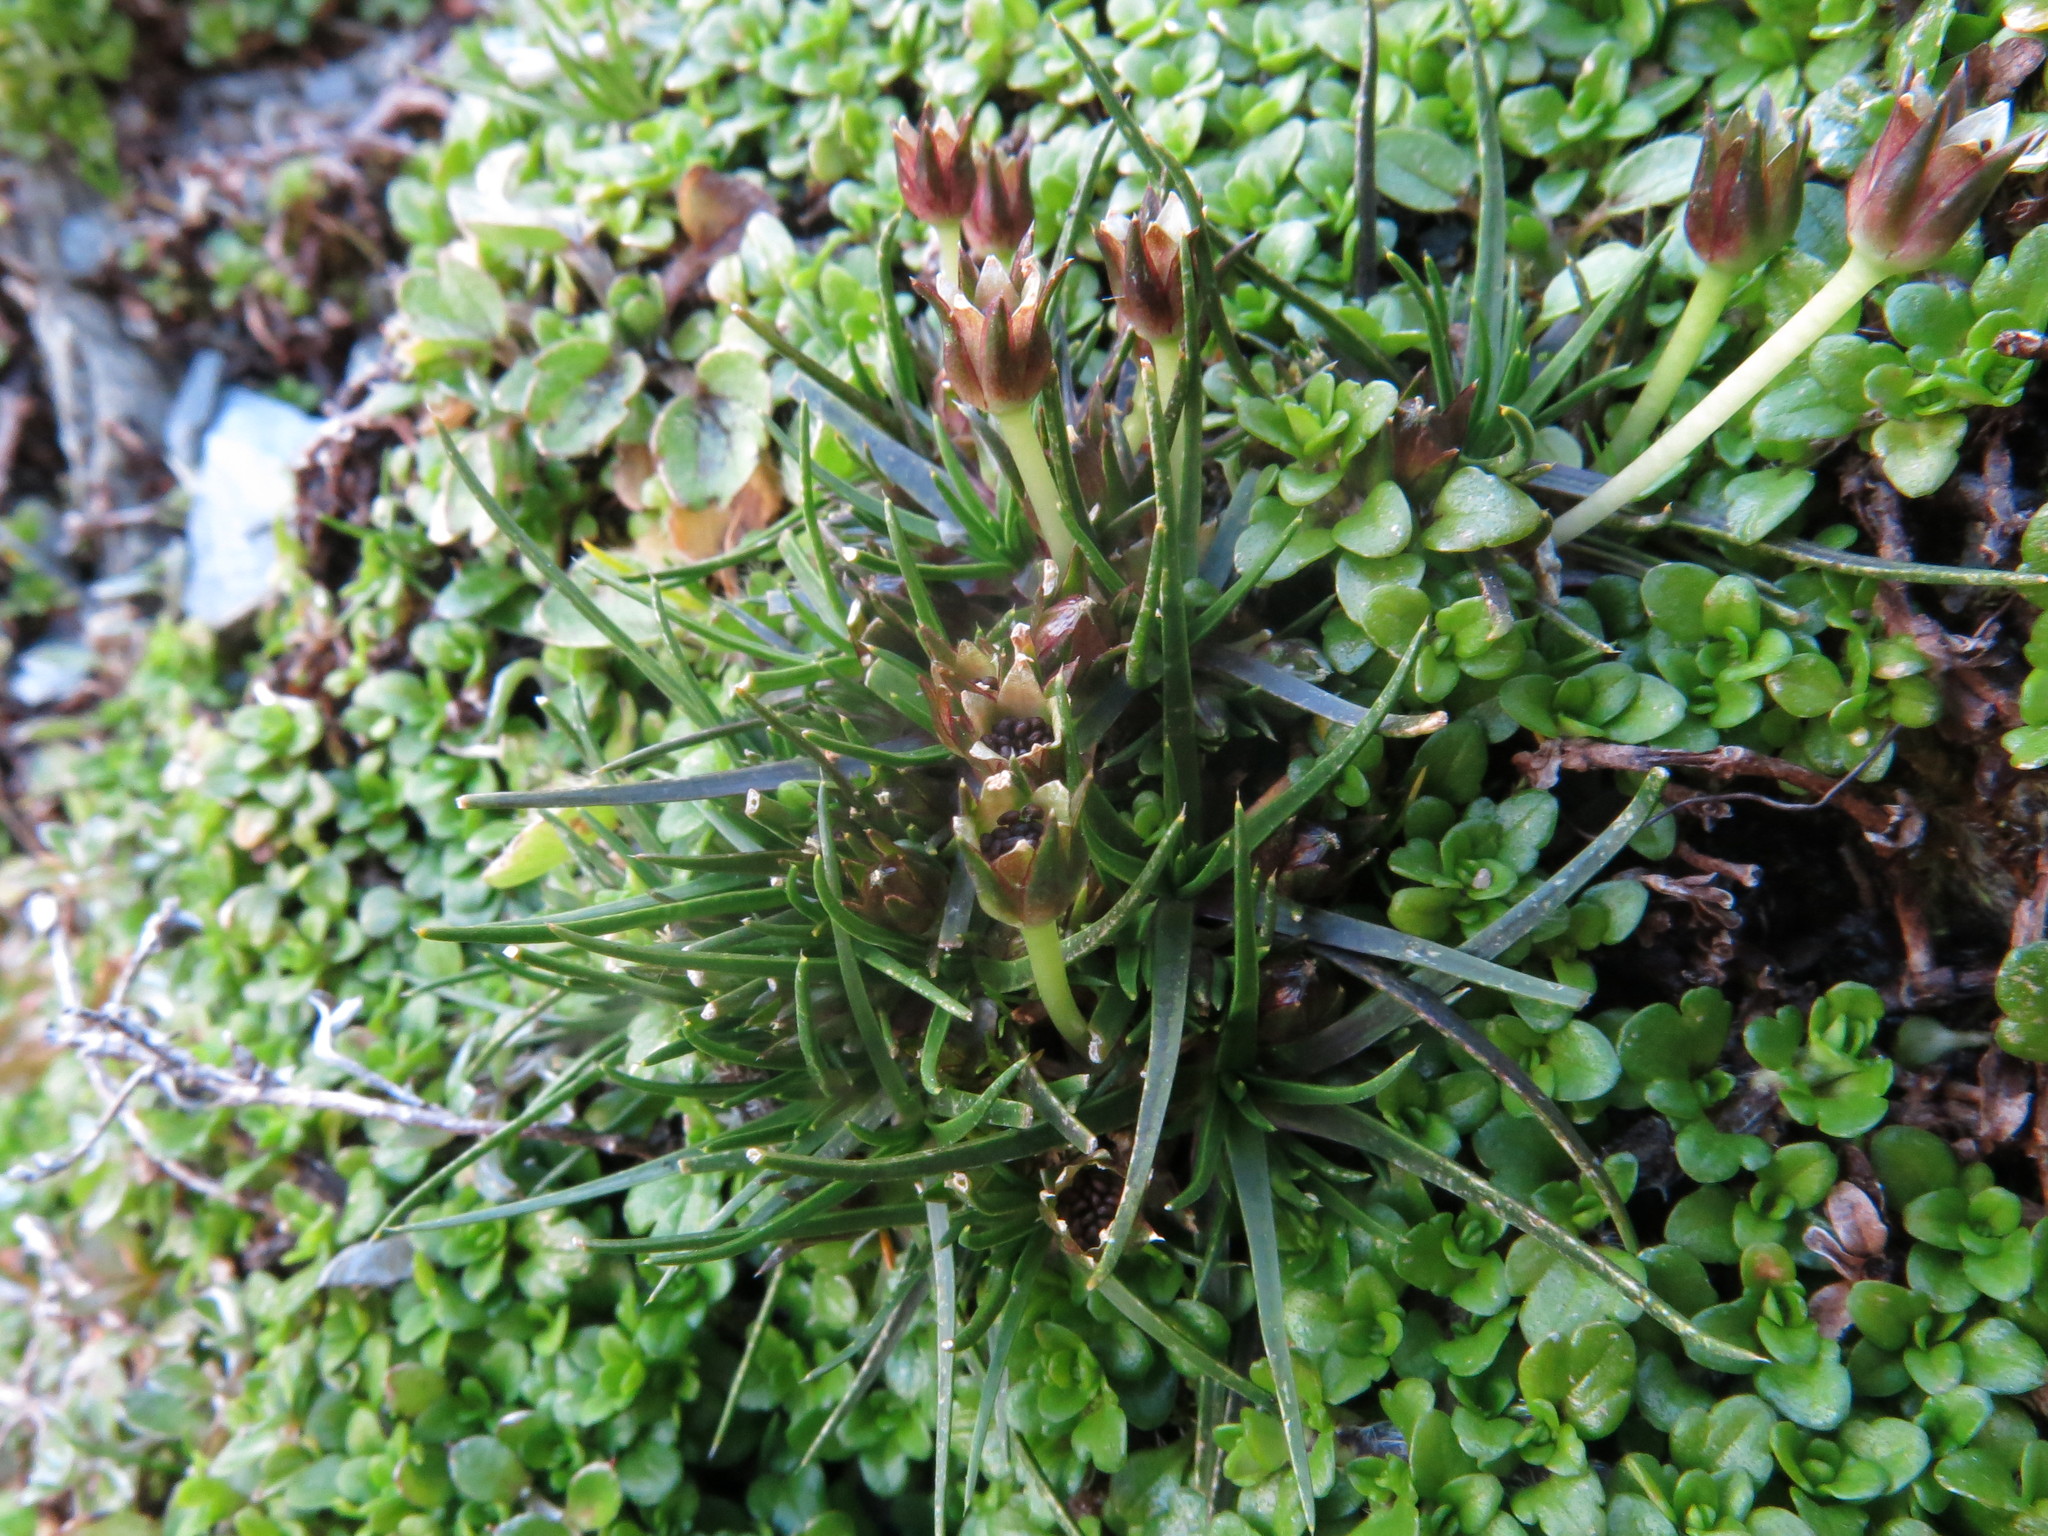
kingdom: Plantae
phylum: Tracheophyta
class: Magnoliopsida
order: Caryophyllales
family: Caryophyllaceae
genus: Colobanthus
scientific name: Colobanthus apetalus
